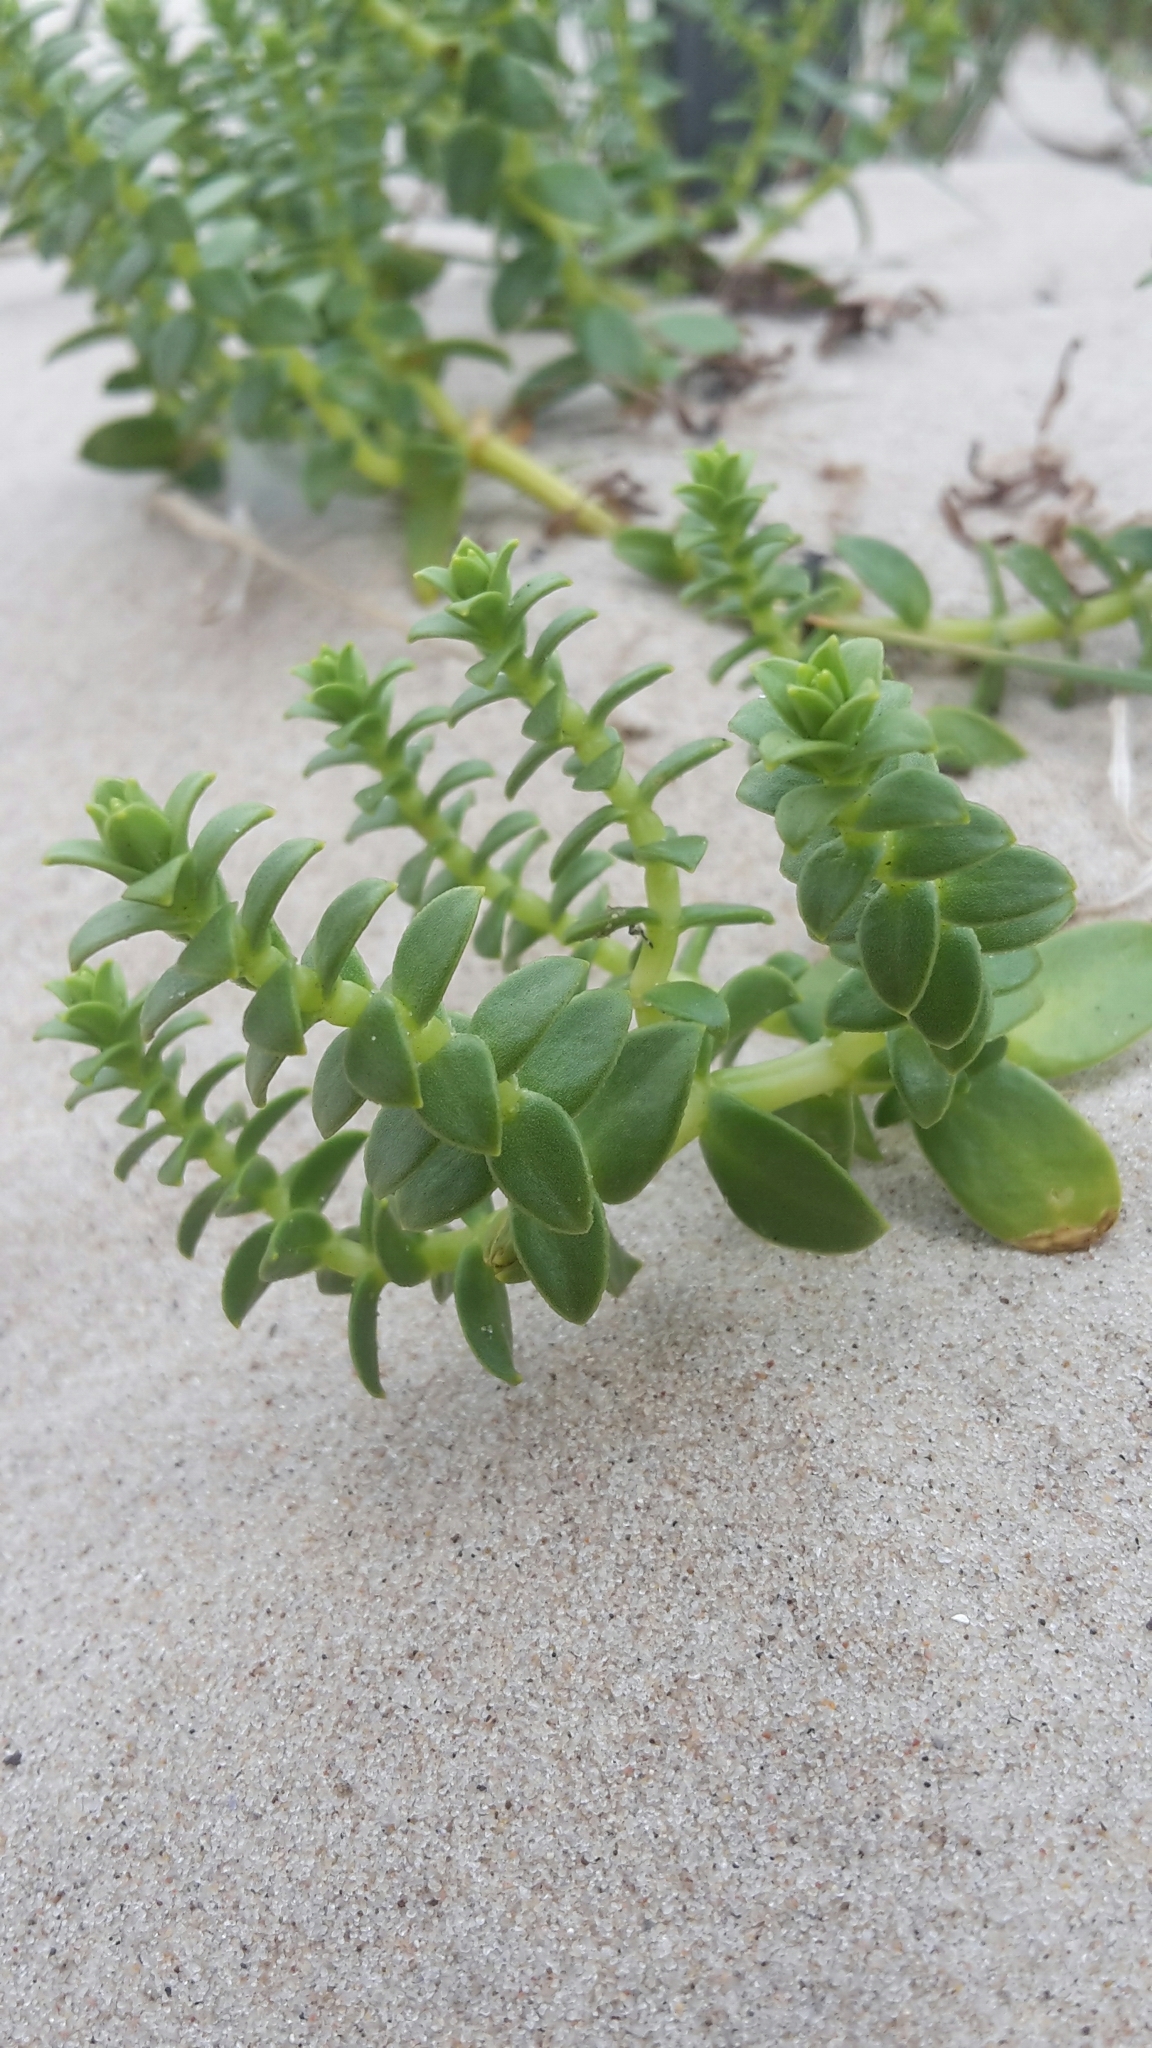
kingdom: Plantae
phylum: Tracheophyta
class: Magnoliopsida
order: Caryophyllales
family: Caryophyllaceae
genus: Honckenya
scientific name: Honckenya peploides
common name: Sea sandwort
